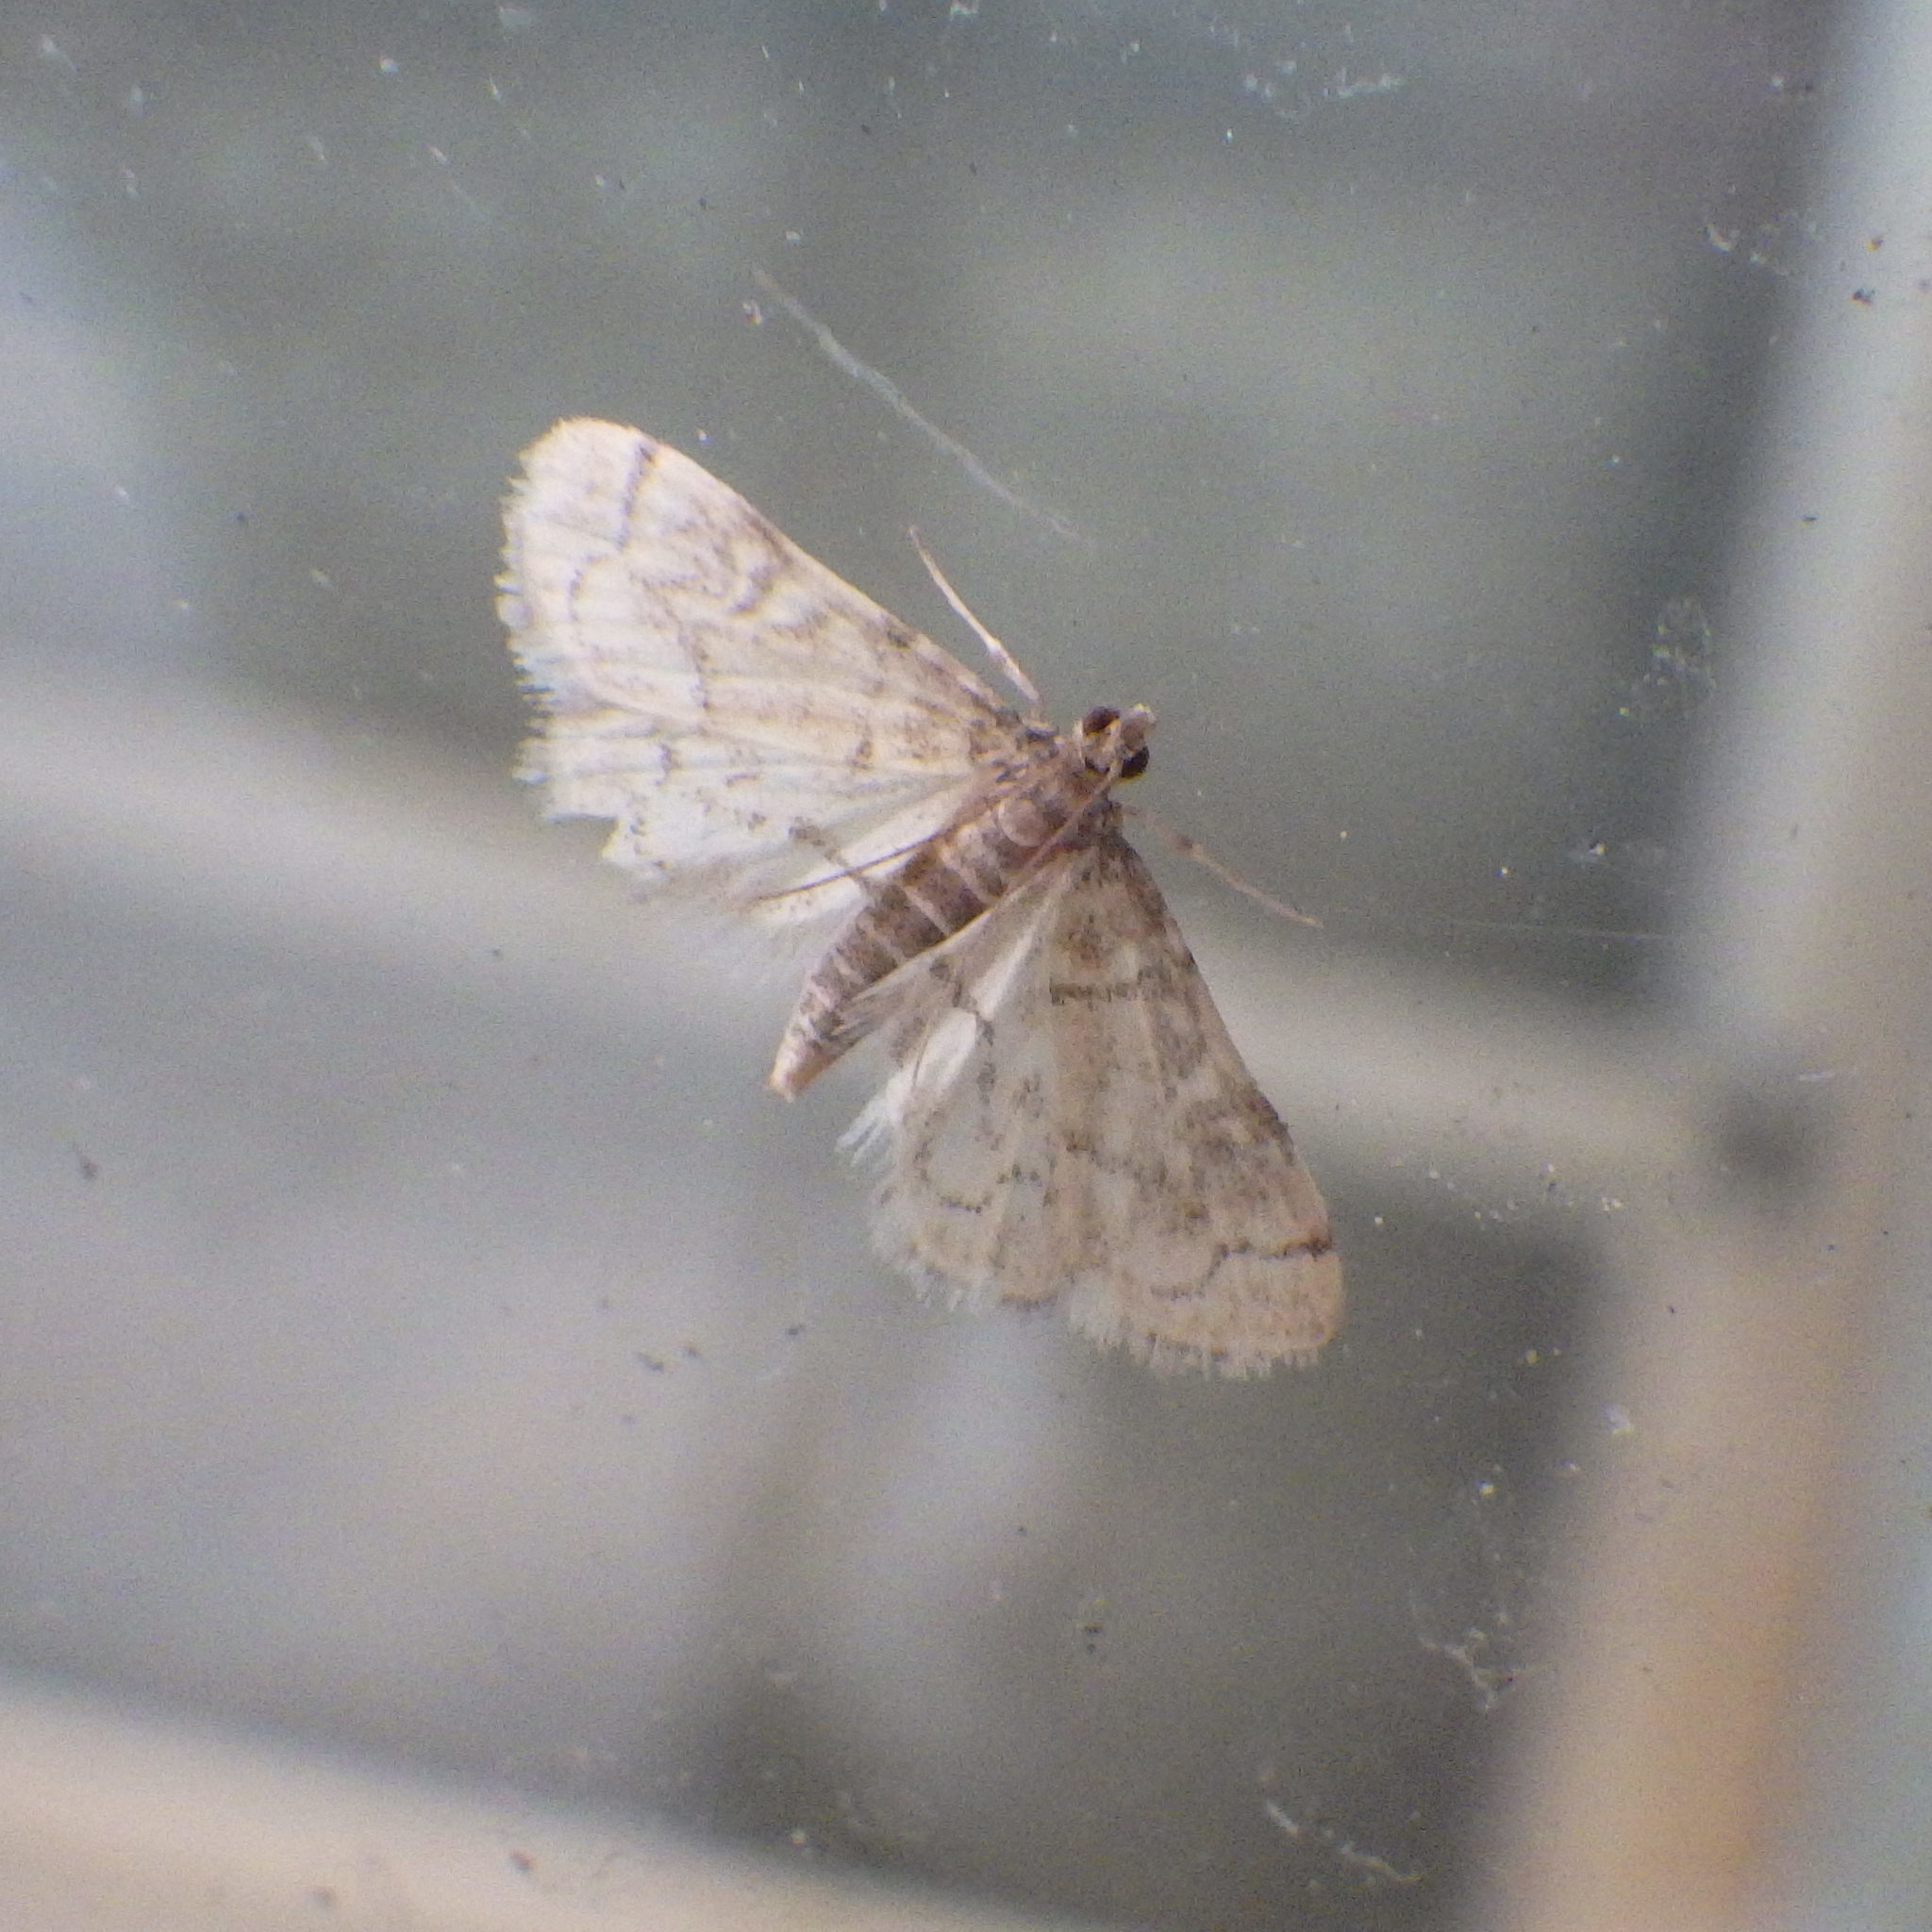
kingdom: Animalia
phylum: Arthropoda
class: Insecta
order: Lepidoptera
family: Crambidae
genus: Anageshna
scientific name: Anageshna primordialis
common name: Yellow-spotted webworm moth
